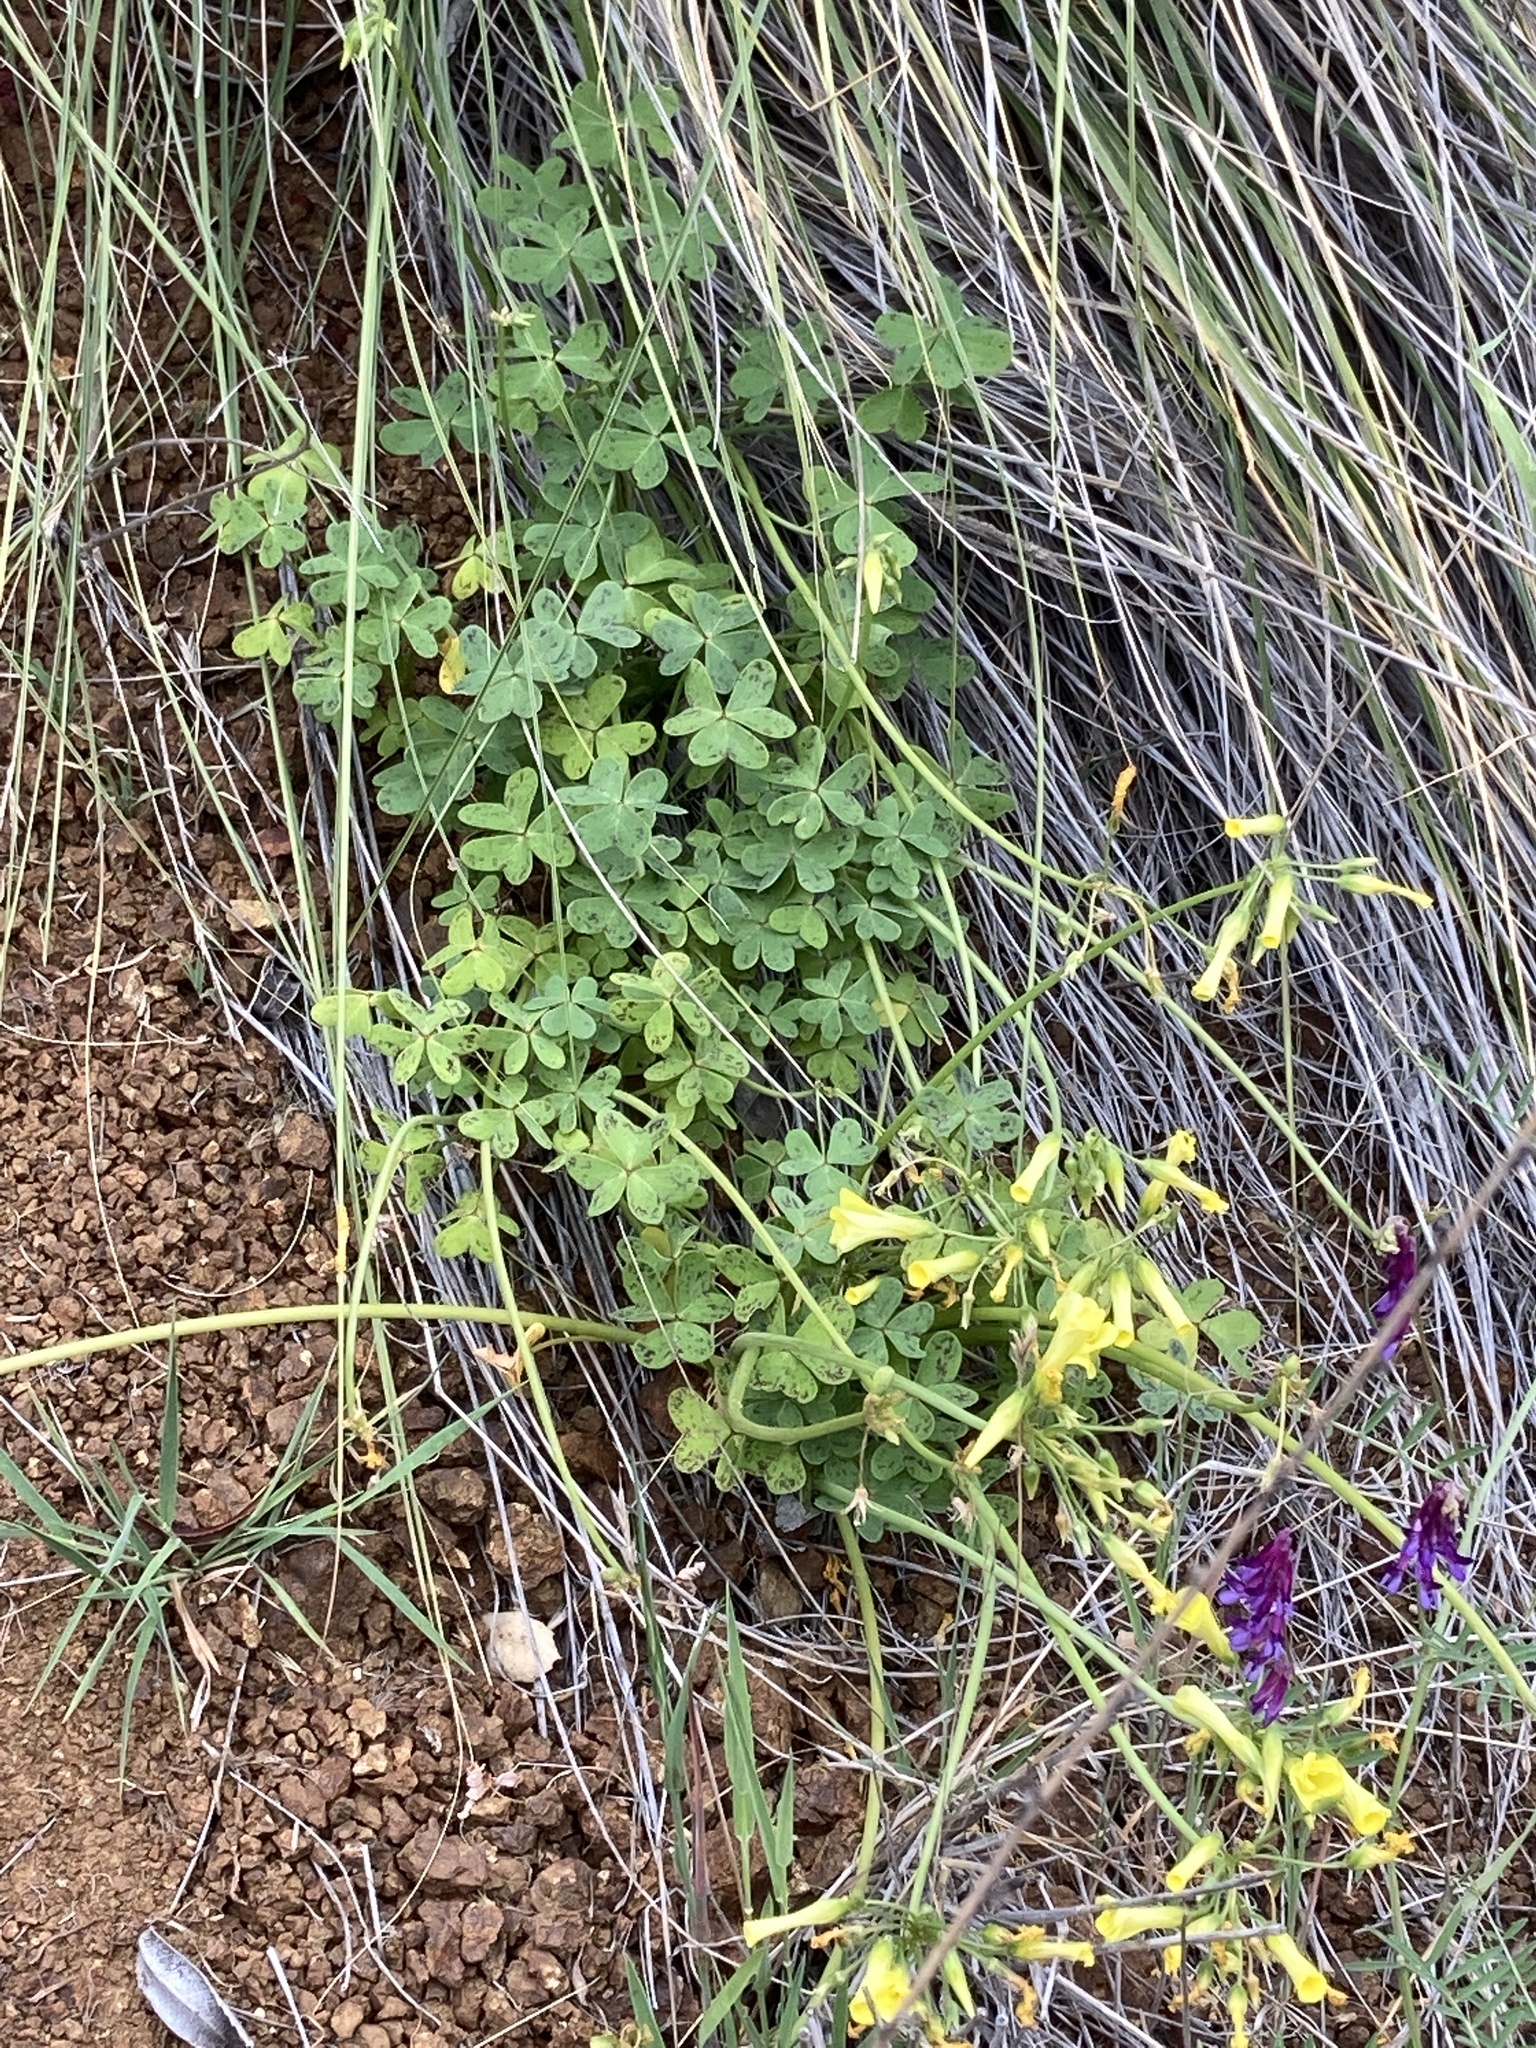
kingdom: Plantae
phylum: Tracheophyta
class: Magnoliopsida
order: Oxalidales
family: Oxalidaceae
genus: Oxalis
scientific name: Oxalis pes-caprae
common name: Bermuda-buttercup
